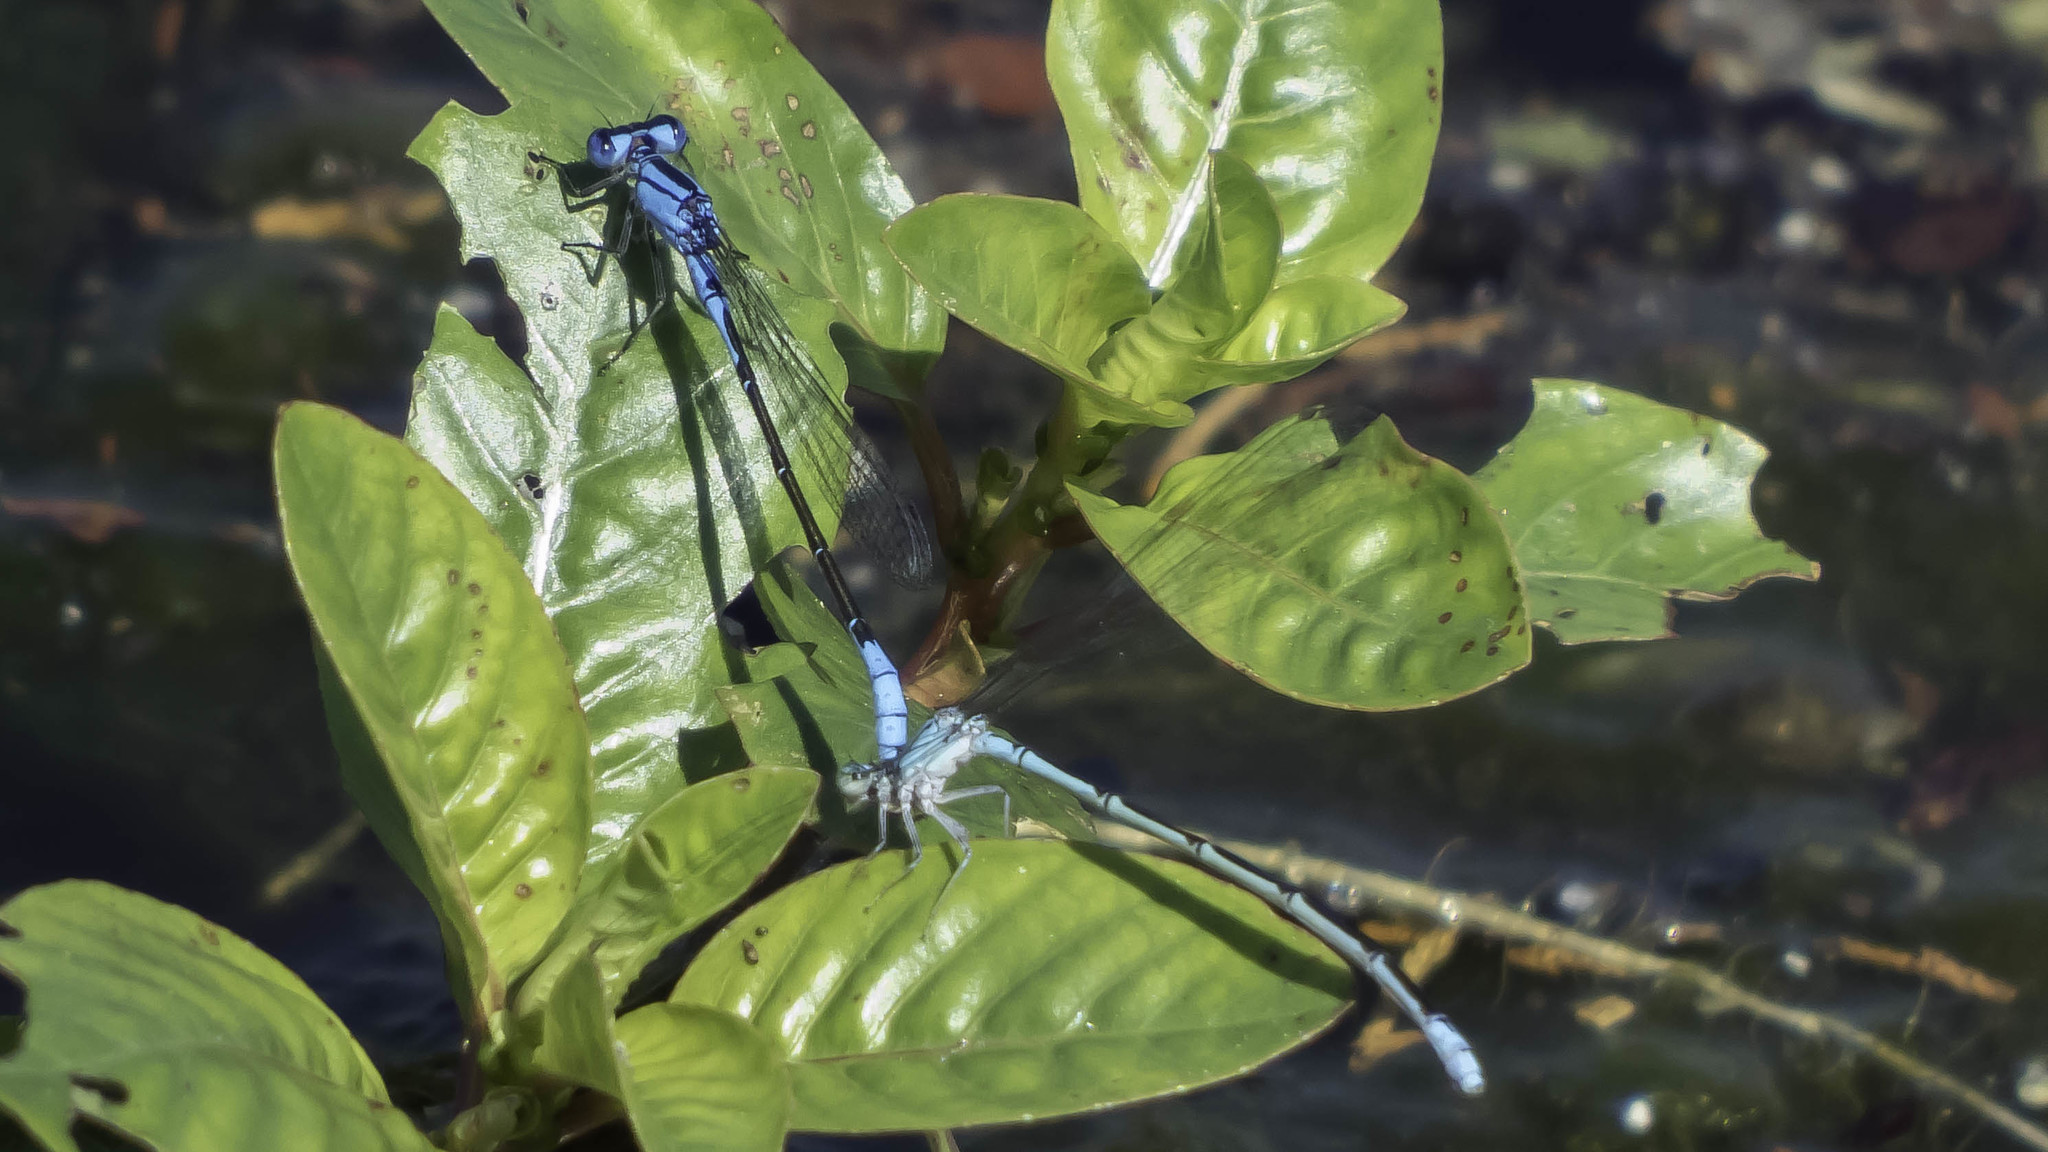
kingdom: Animalia
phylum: Arthropoda
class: Insecta
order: Odonata
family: Coenagrionidae
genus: Enallagma
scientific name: Enallagma aspersum
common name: Azure bluet
